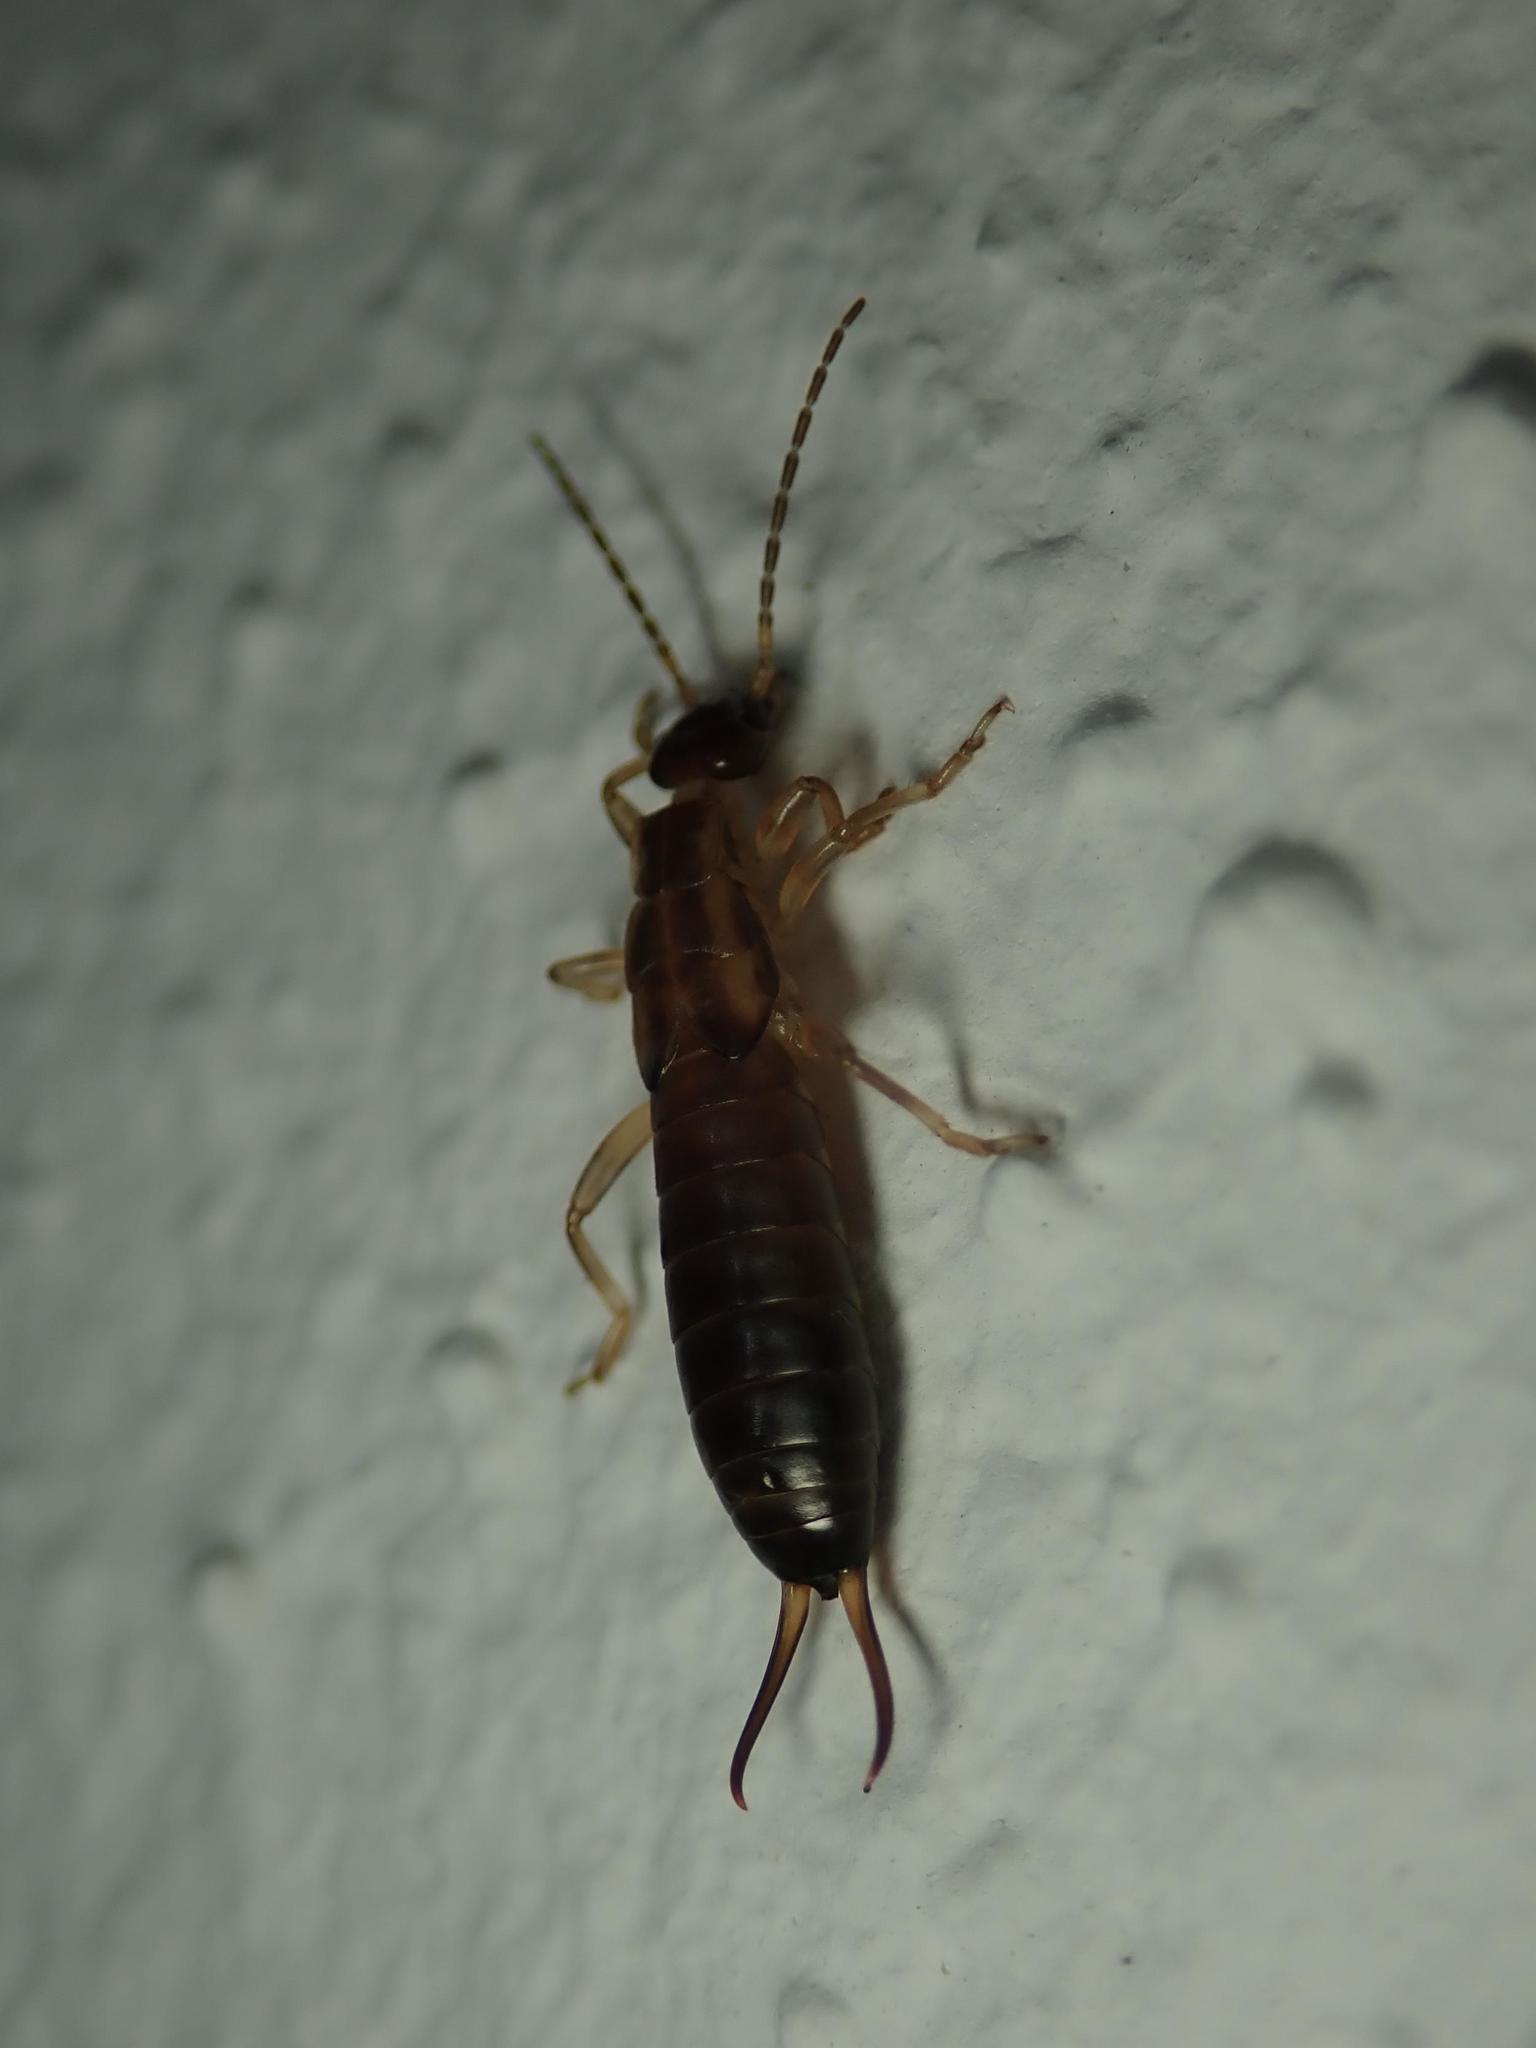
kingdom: Animalia
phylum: Arthropoda
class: Insecta
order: Dermaptera
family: Forficulidae
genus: Forficula
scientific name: Forficula
